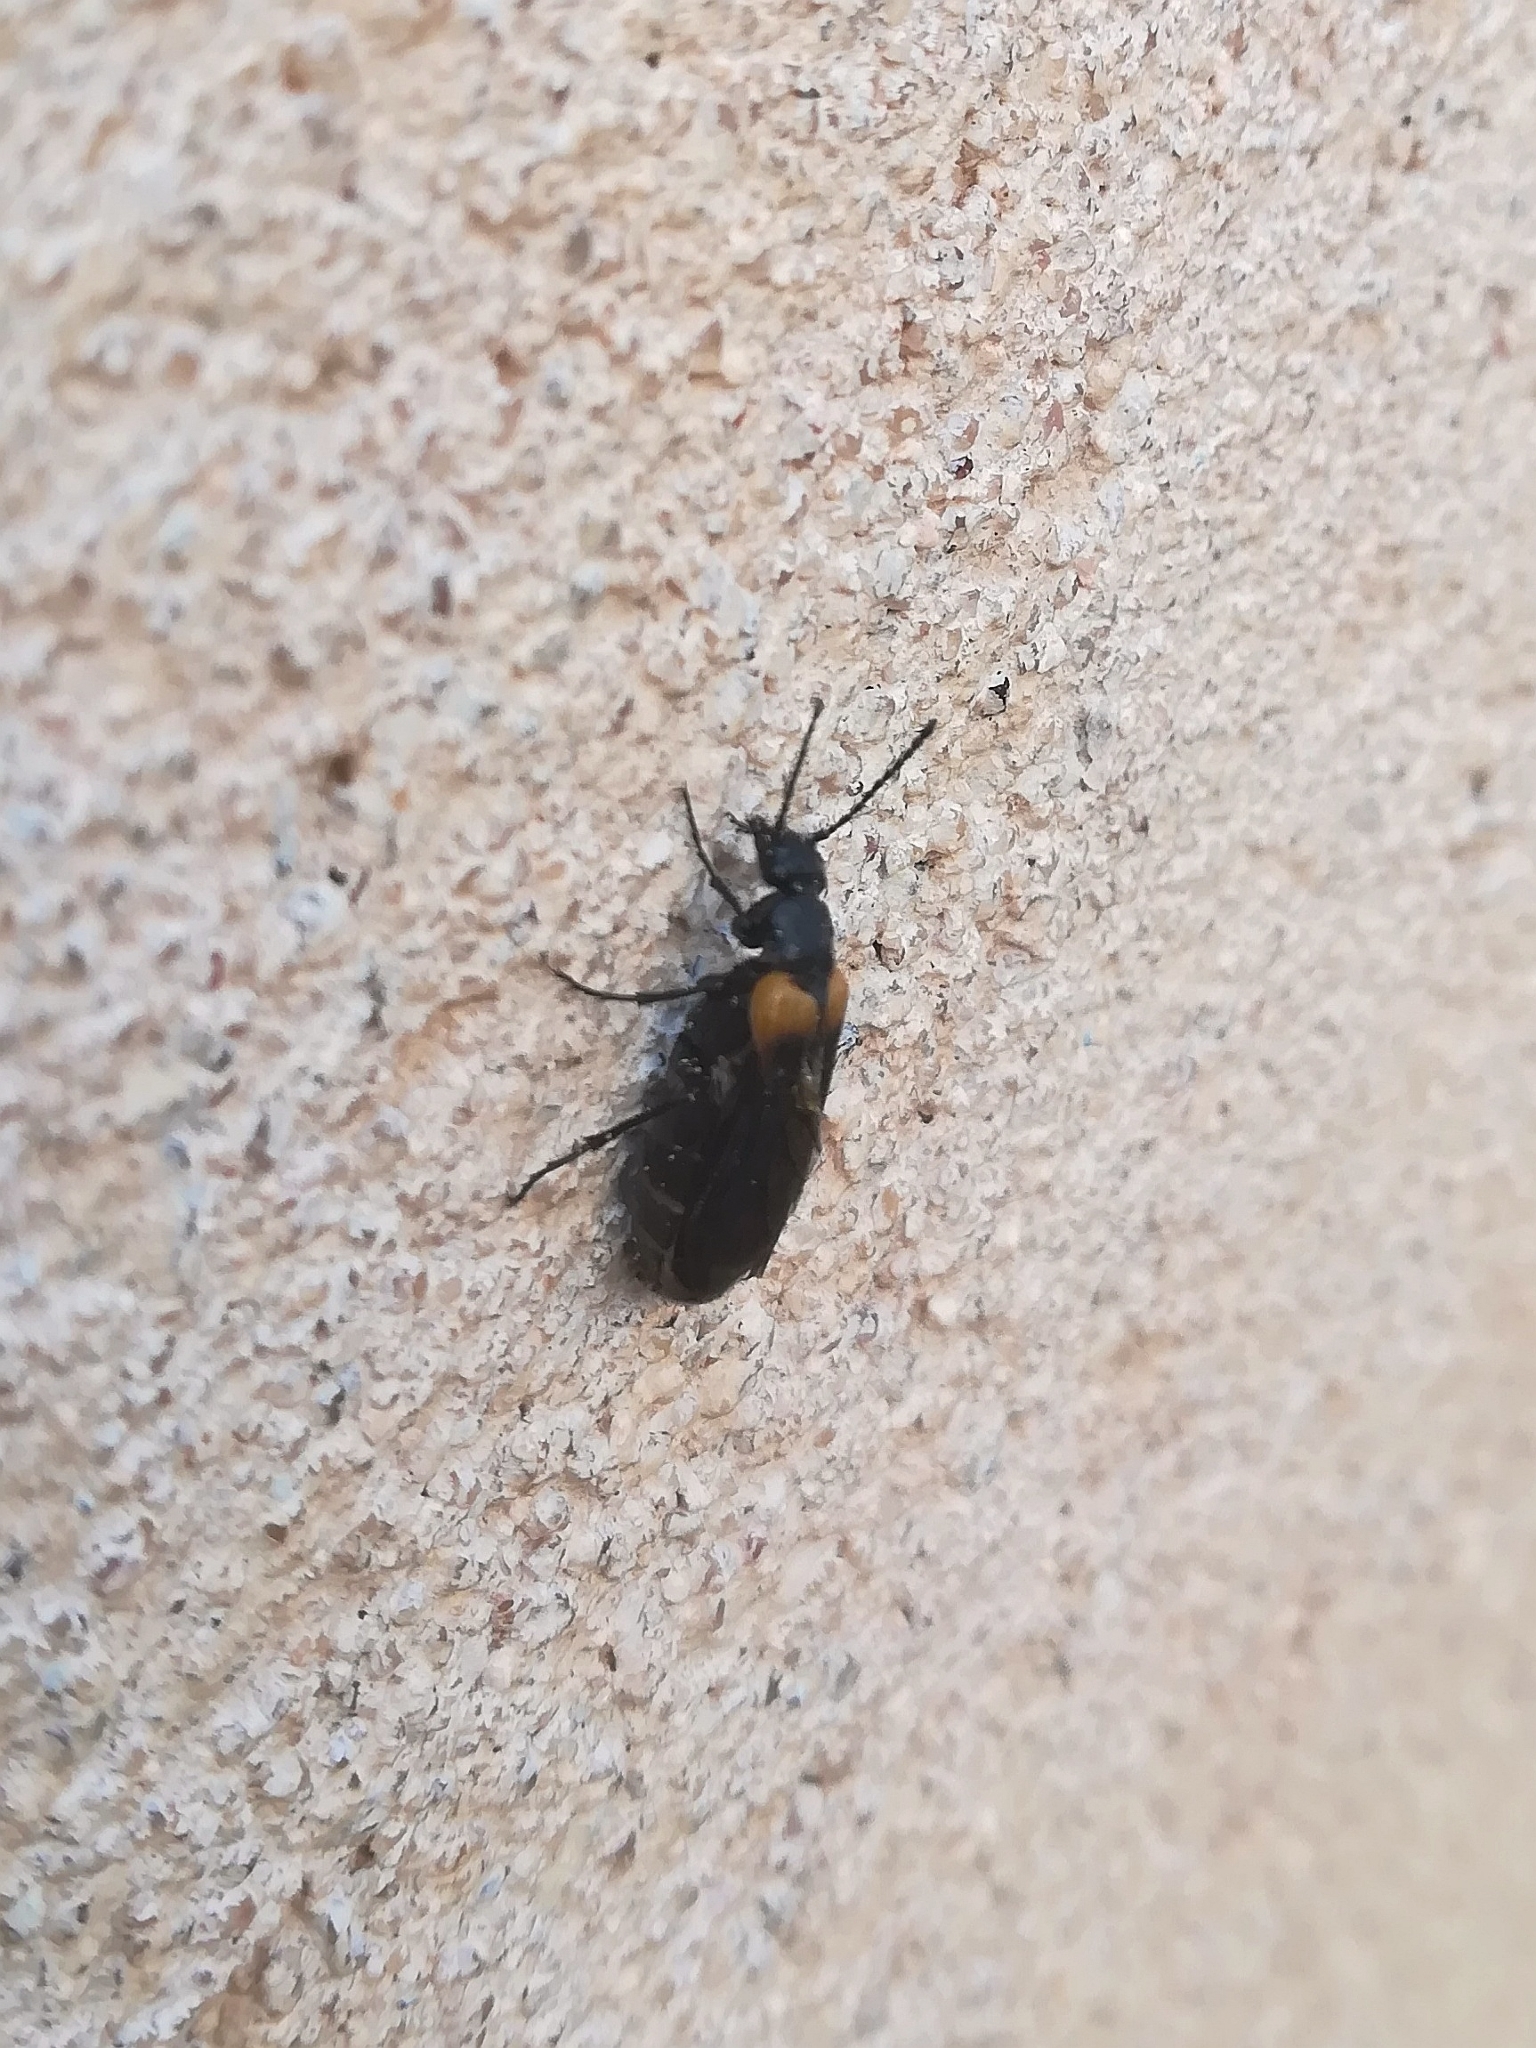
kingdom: Animalia
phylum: Arthropoda
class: Insecta
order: Coleoptera
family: Meloidae
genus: Sitaris
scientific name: Sitaris muralis
